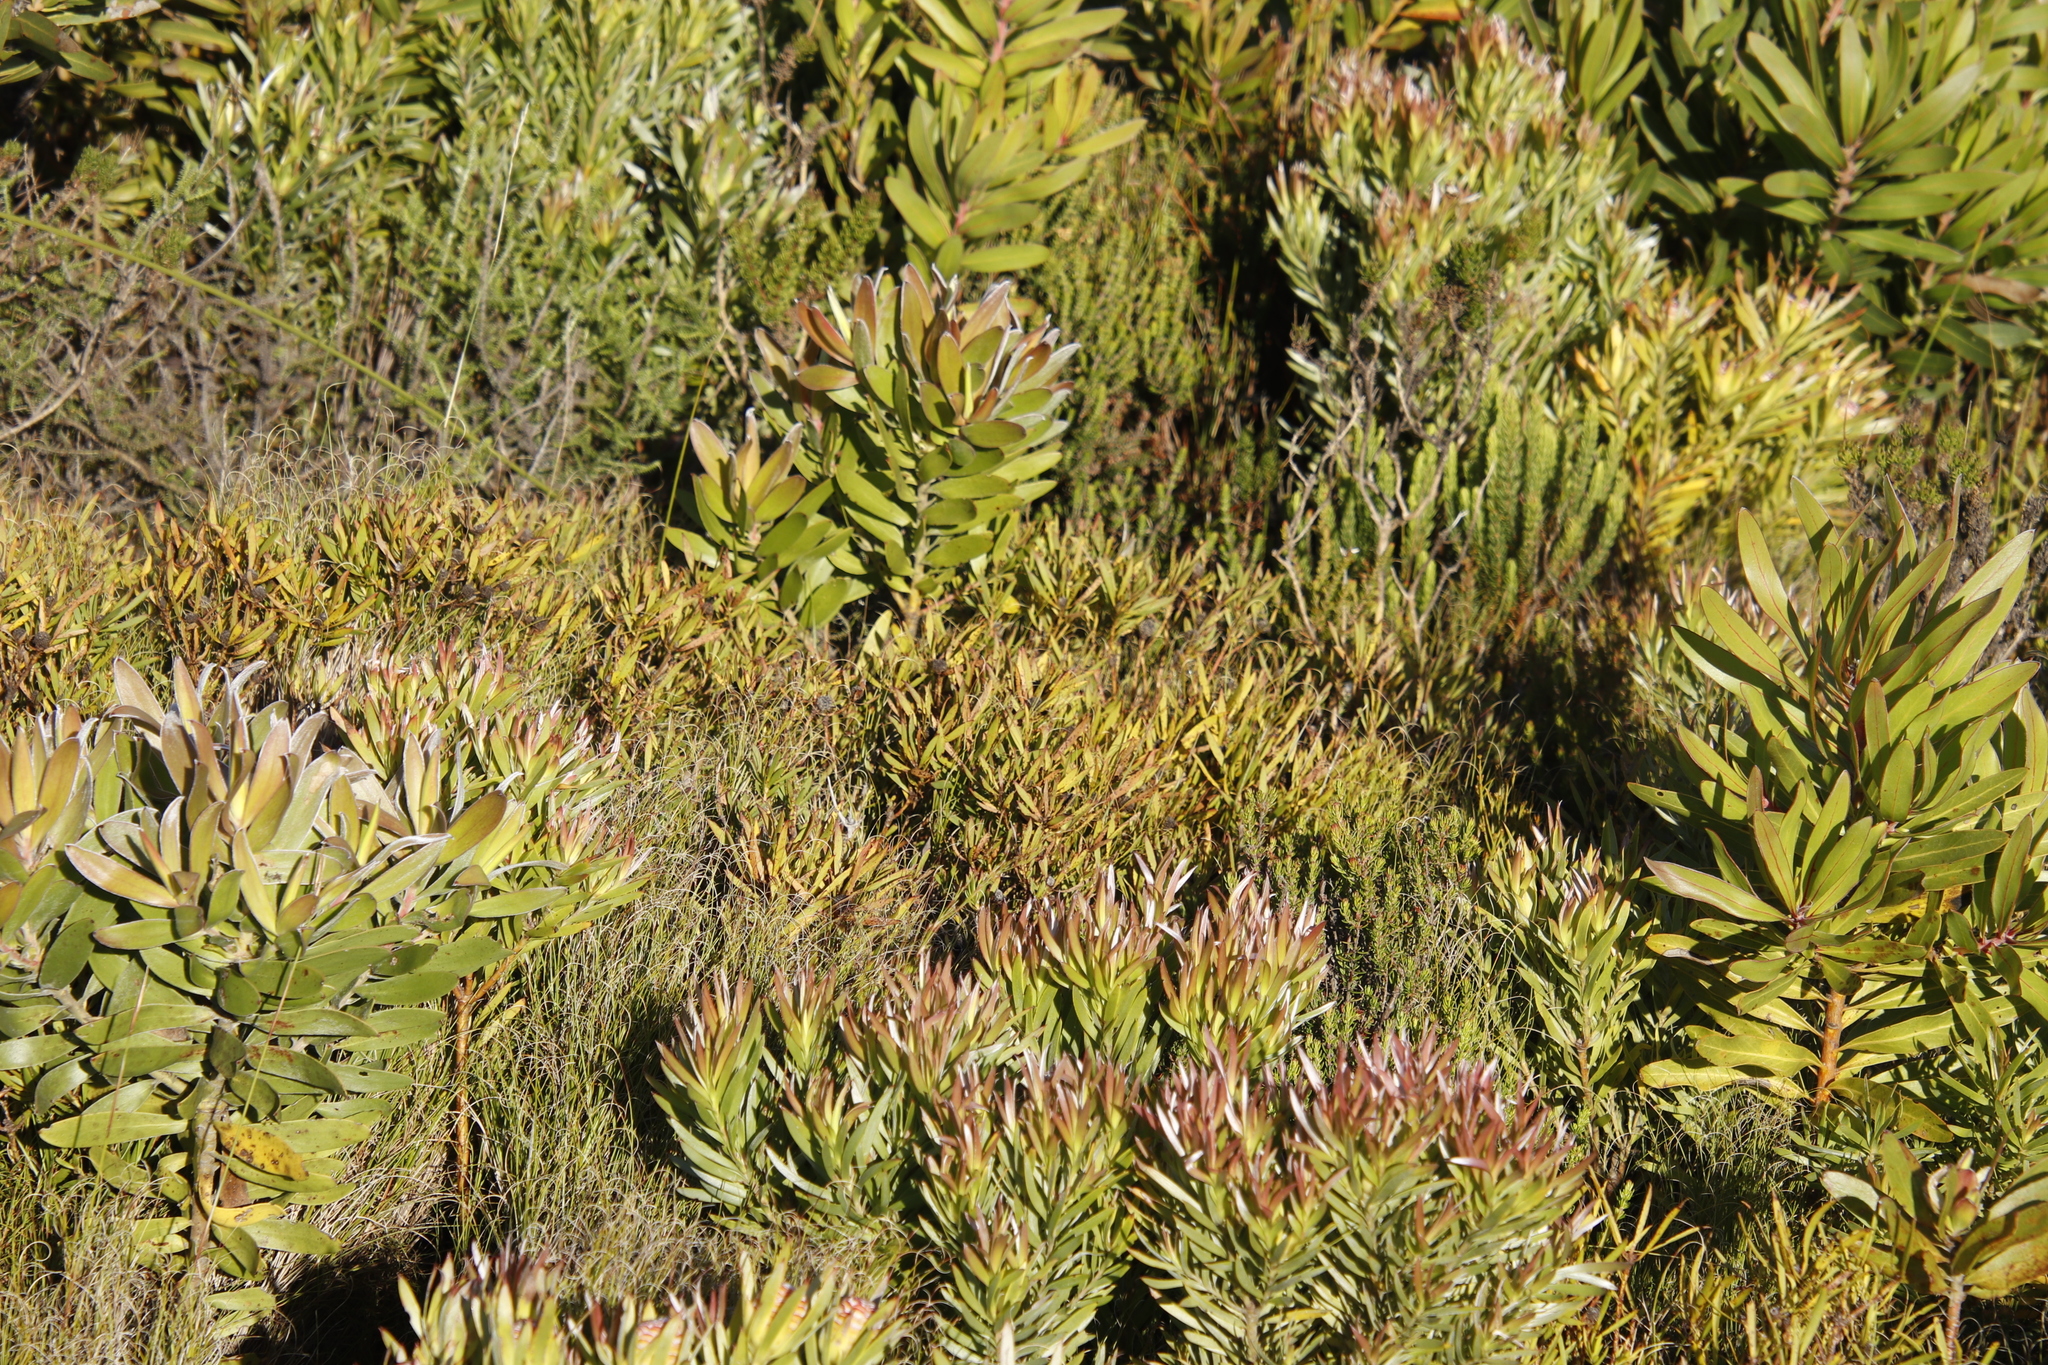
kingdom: Plantae
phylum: Tracheophyta
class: Magnoliopsida
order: Proteales
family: Proteaceae
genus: Leucadendron
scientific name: Leucadendron salignum
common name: Common sunshine conebush
